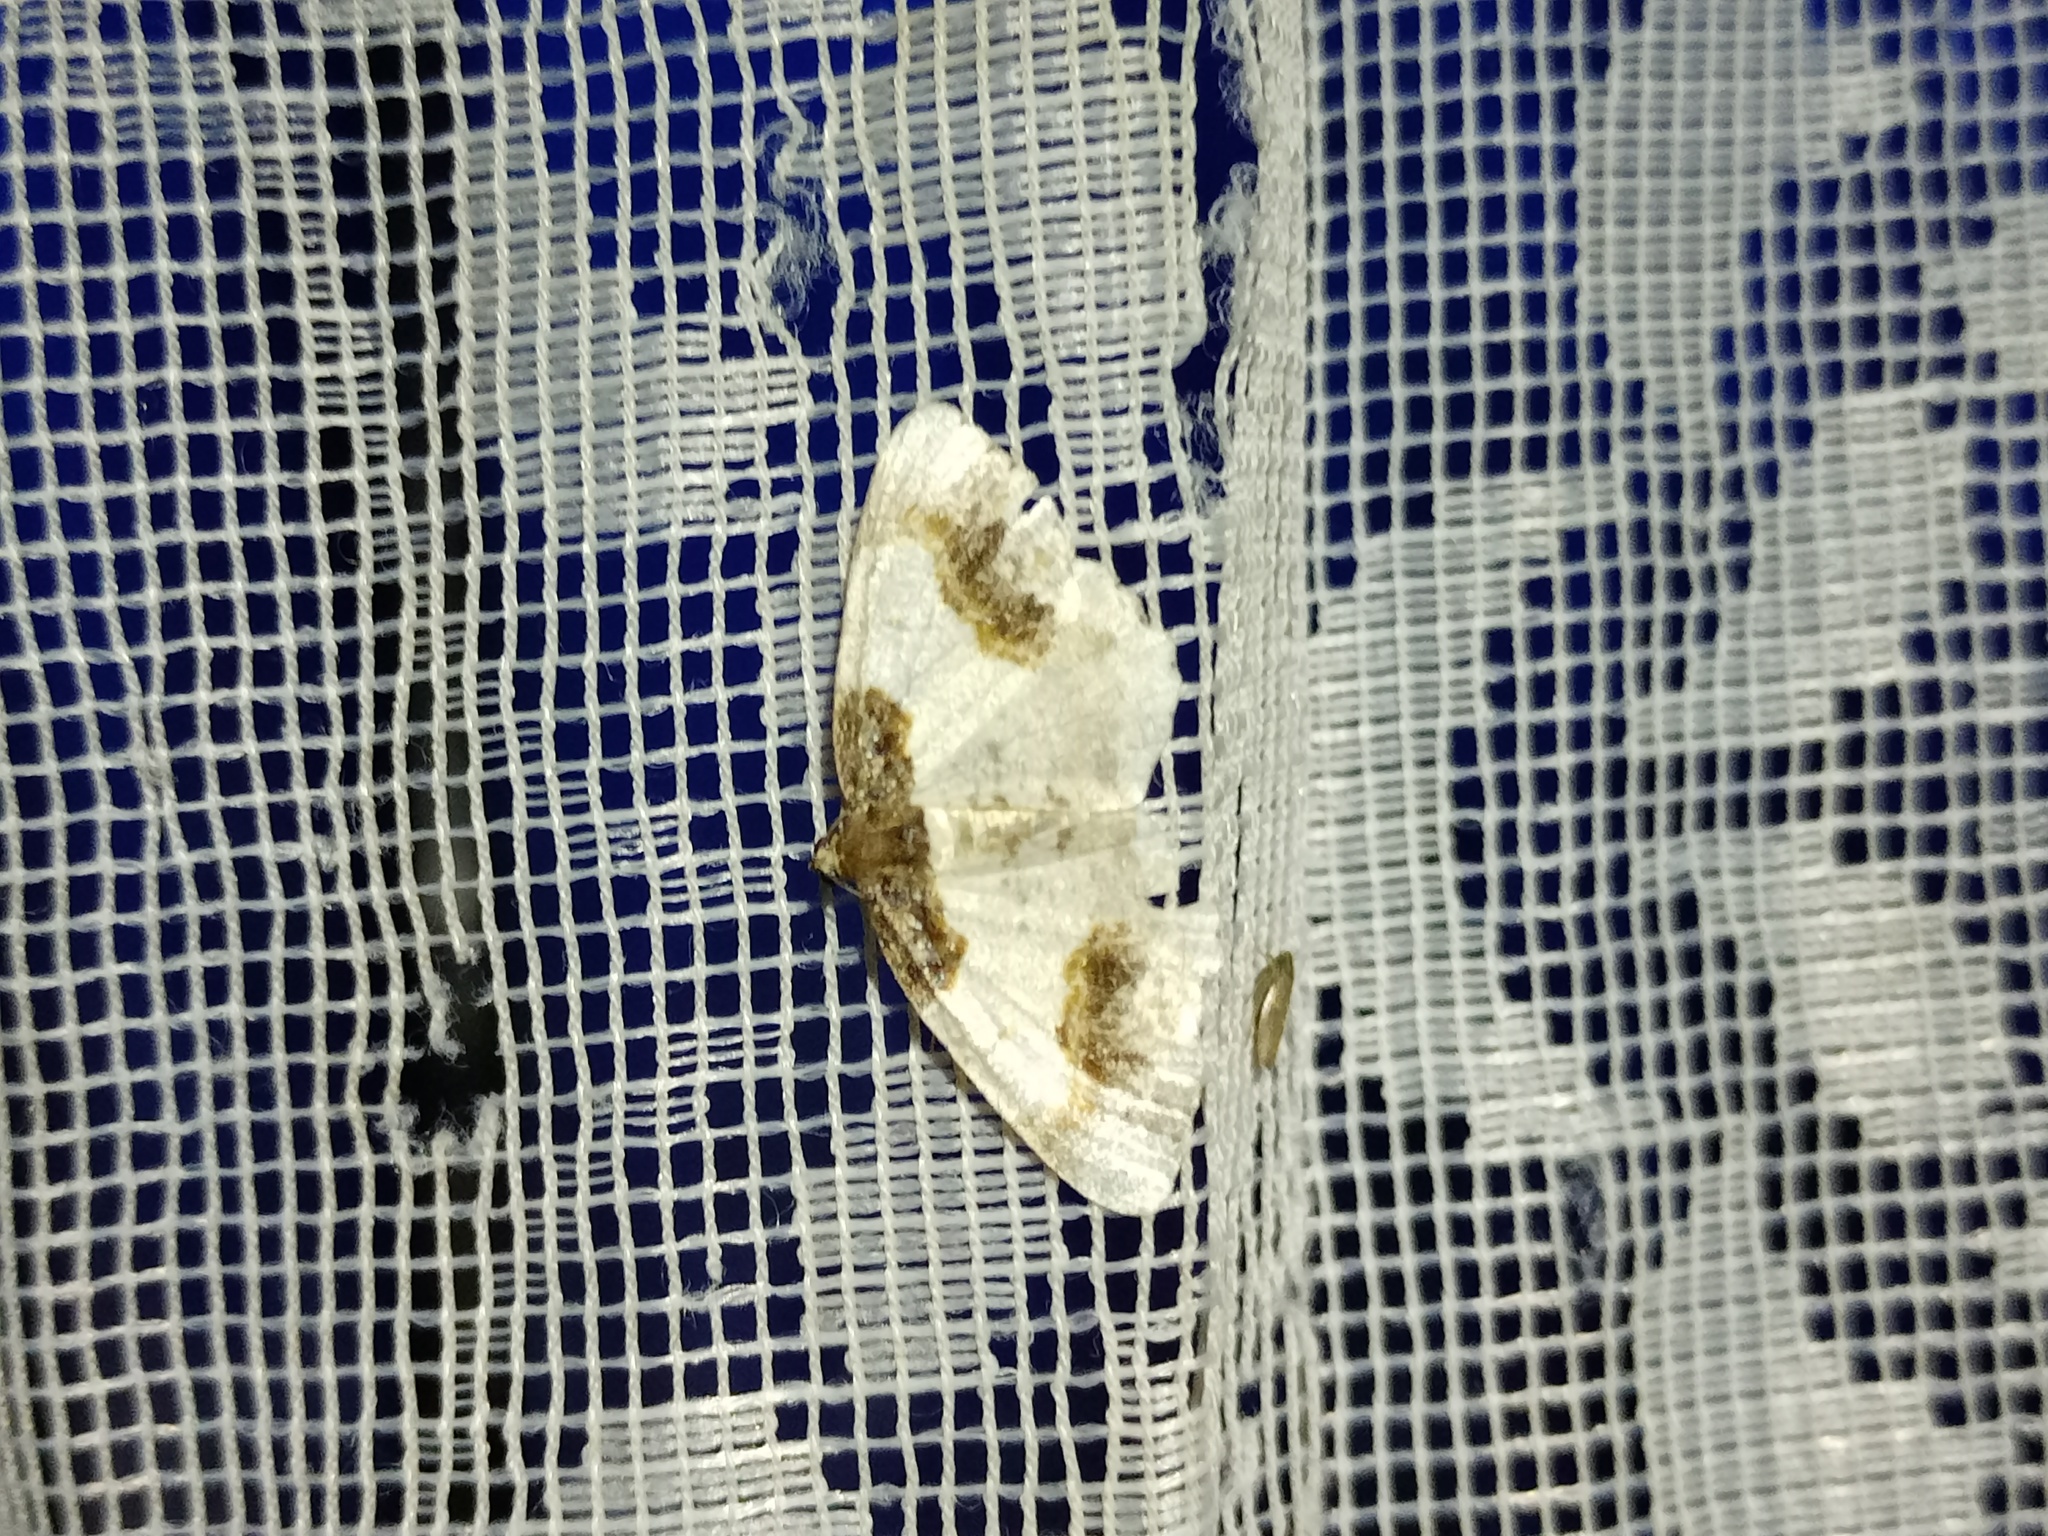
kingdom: Animalia
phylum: Arthropoda
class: Insecta
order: Lepidoptera
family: Geometridae
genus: Ligdia
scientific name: Ligdia adustata
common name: Scorched carpet
